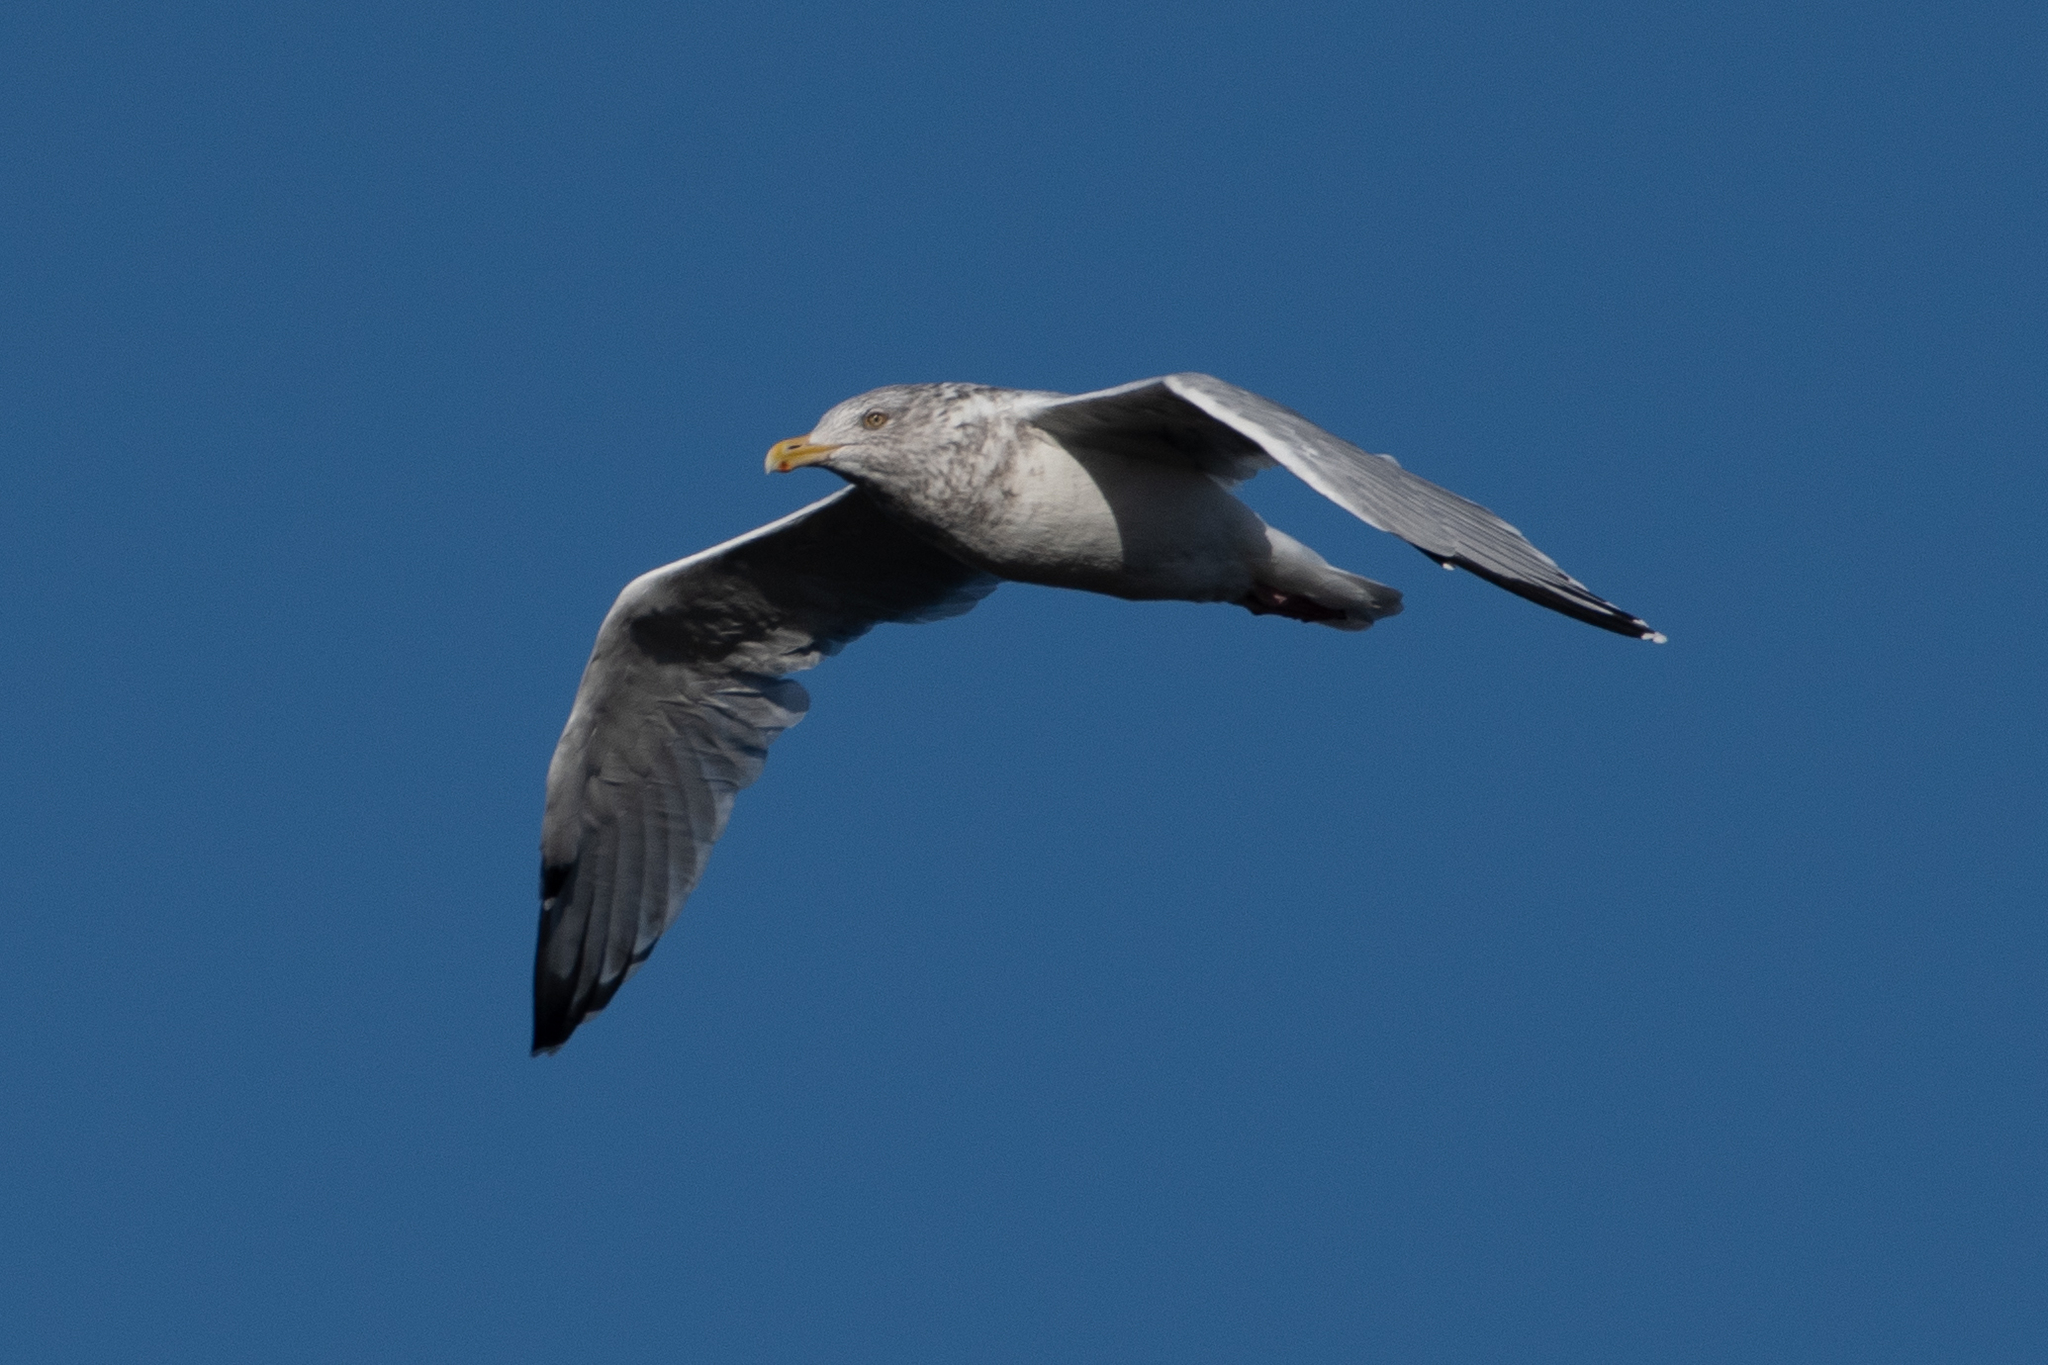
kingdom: Animalia
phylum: Chordata
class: Aves
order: Charadriiformes
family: Laridae
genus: Larus
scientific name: Larus argentatus
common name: Herring gull
